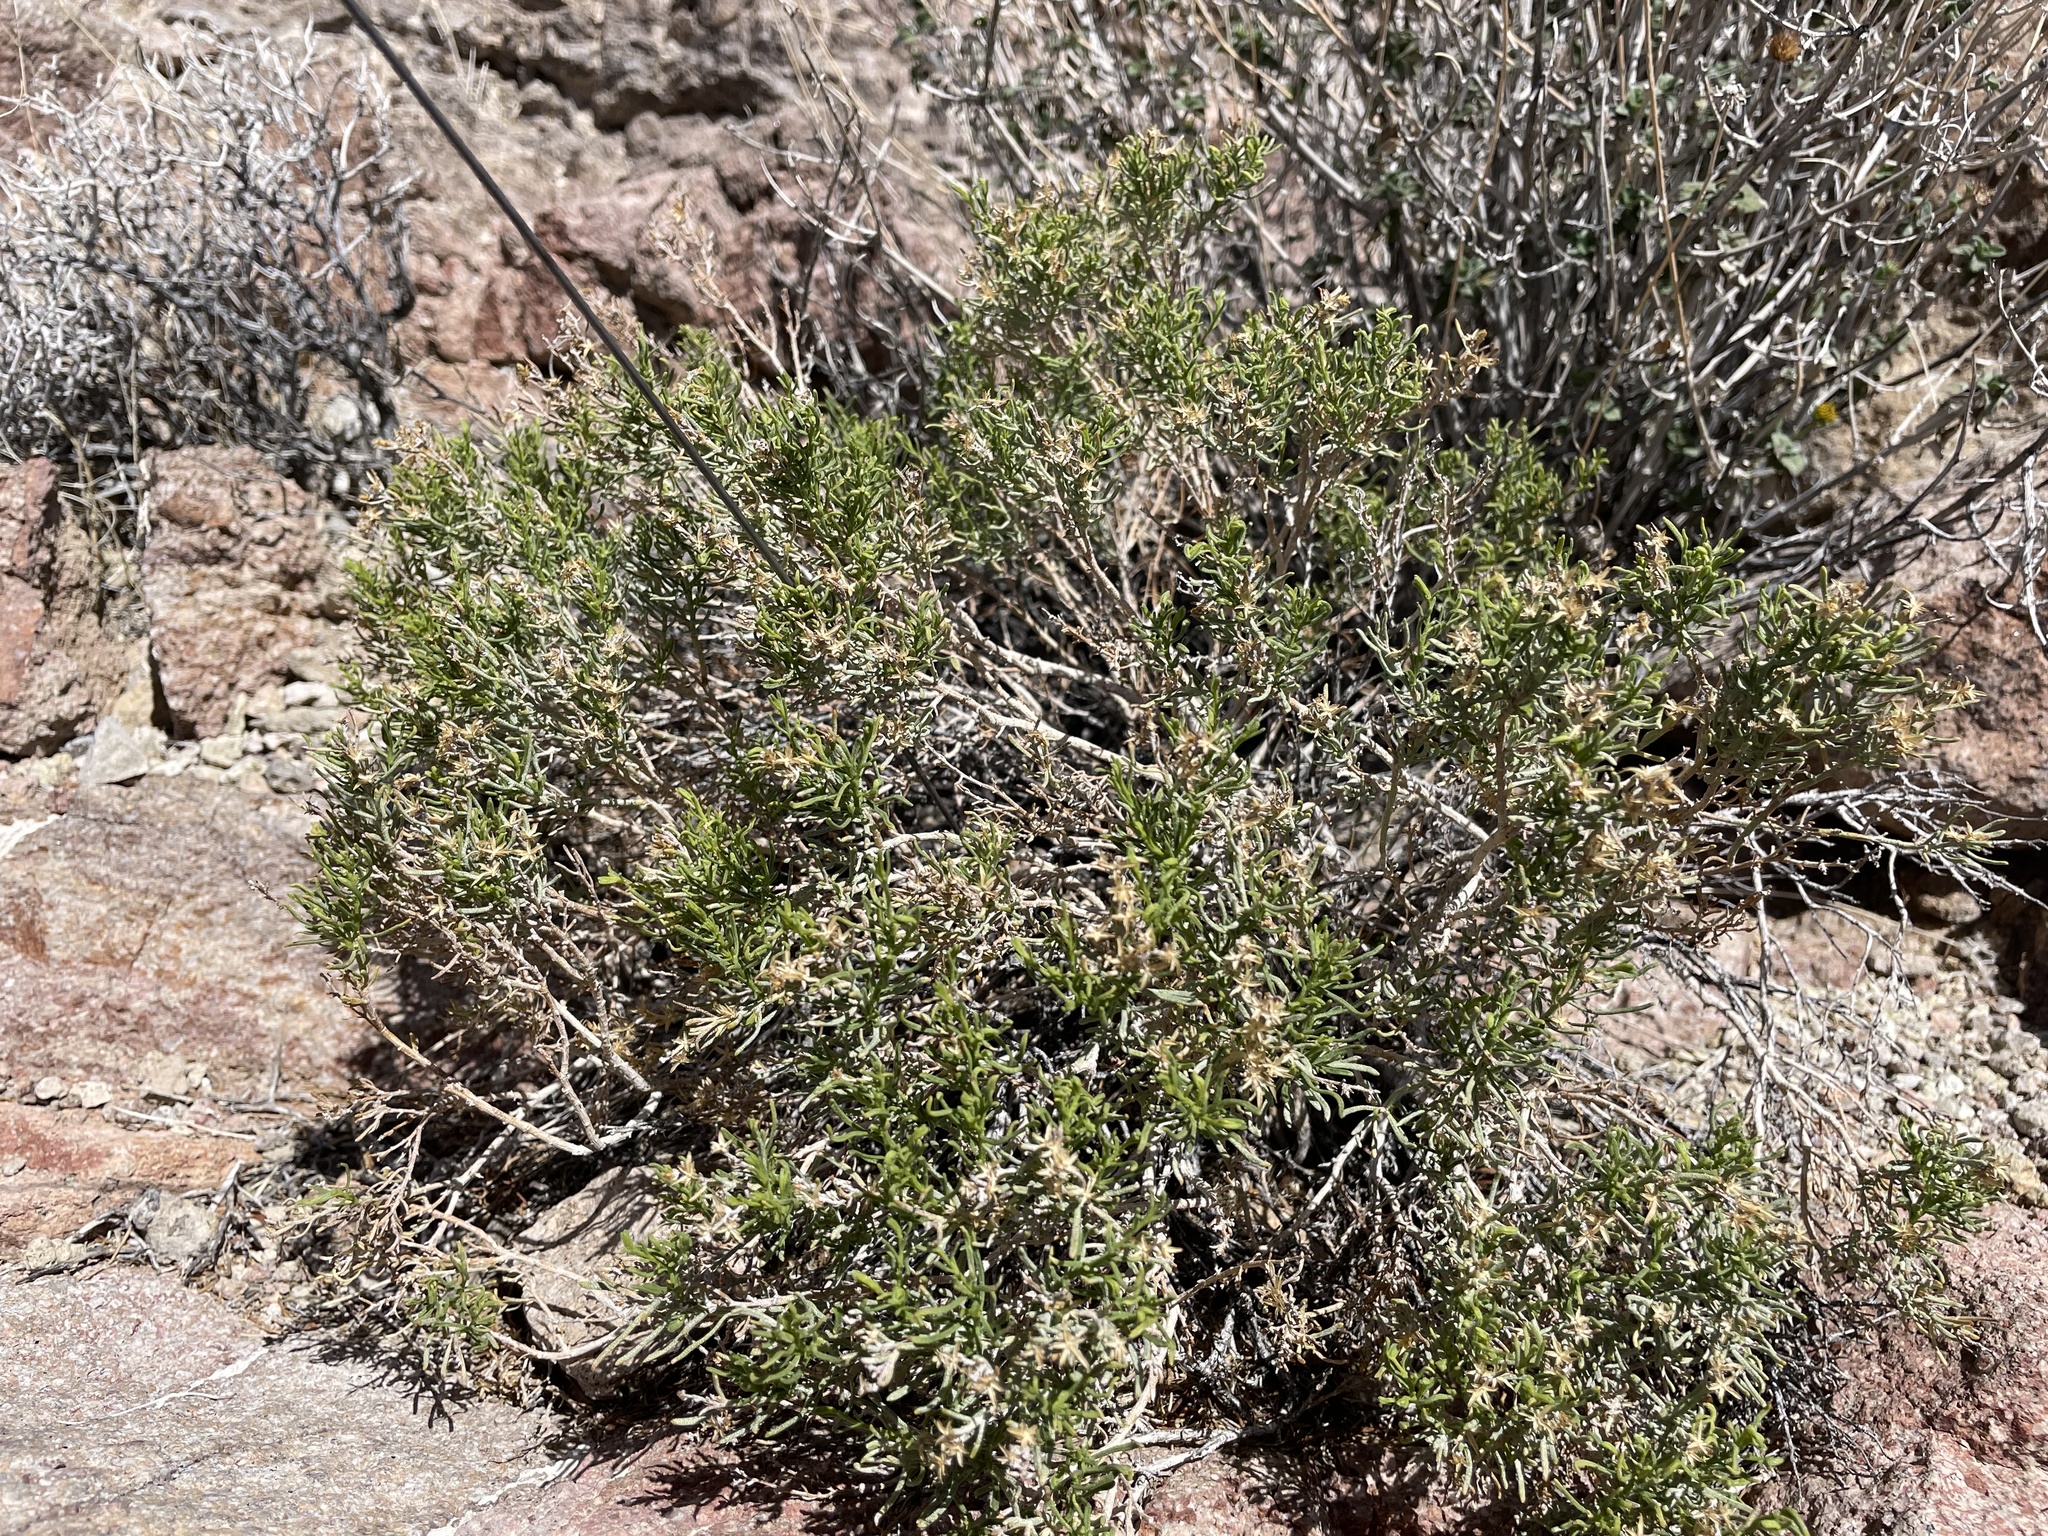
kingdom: Plantae
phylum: Tracheophyta
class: Magnoliopsida
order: Asterales
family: Asteraceae
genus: Ericameria
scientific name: Ericameria teretifolia
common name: Round-leaf rabbitbrush
